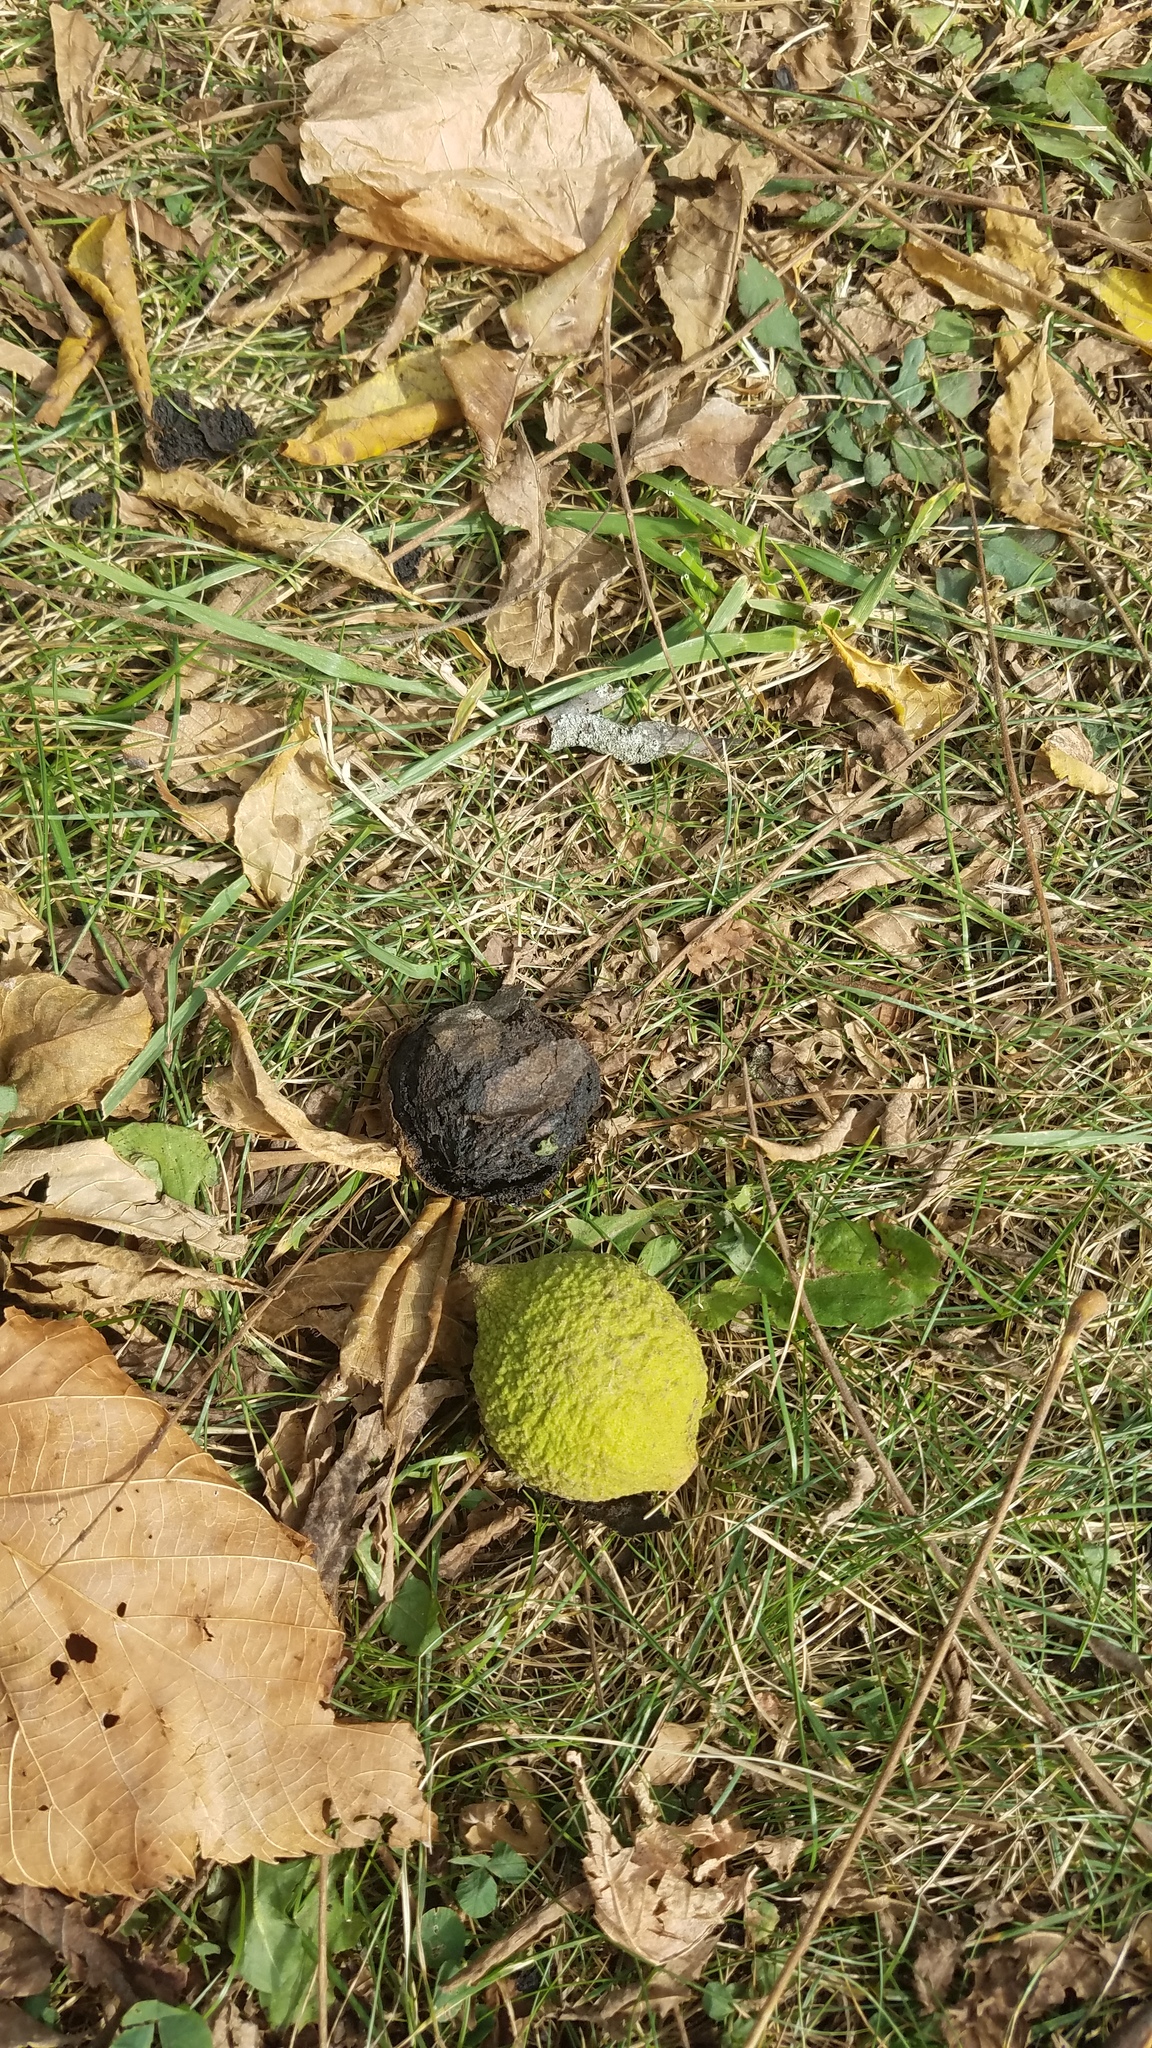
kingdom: Plantae
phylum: Tracheophyta
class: Magnoliopsida
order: Fagales
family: Juglandaceae
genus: Juglans
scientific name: Juglans nigra
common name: Black walnut
